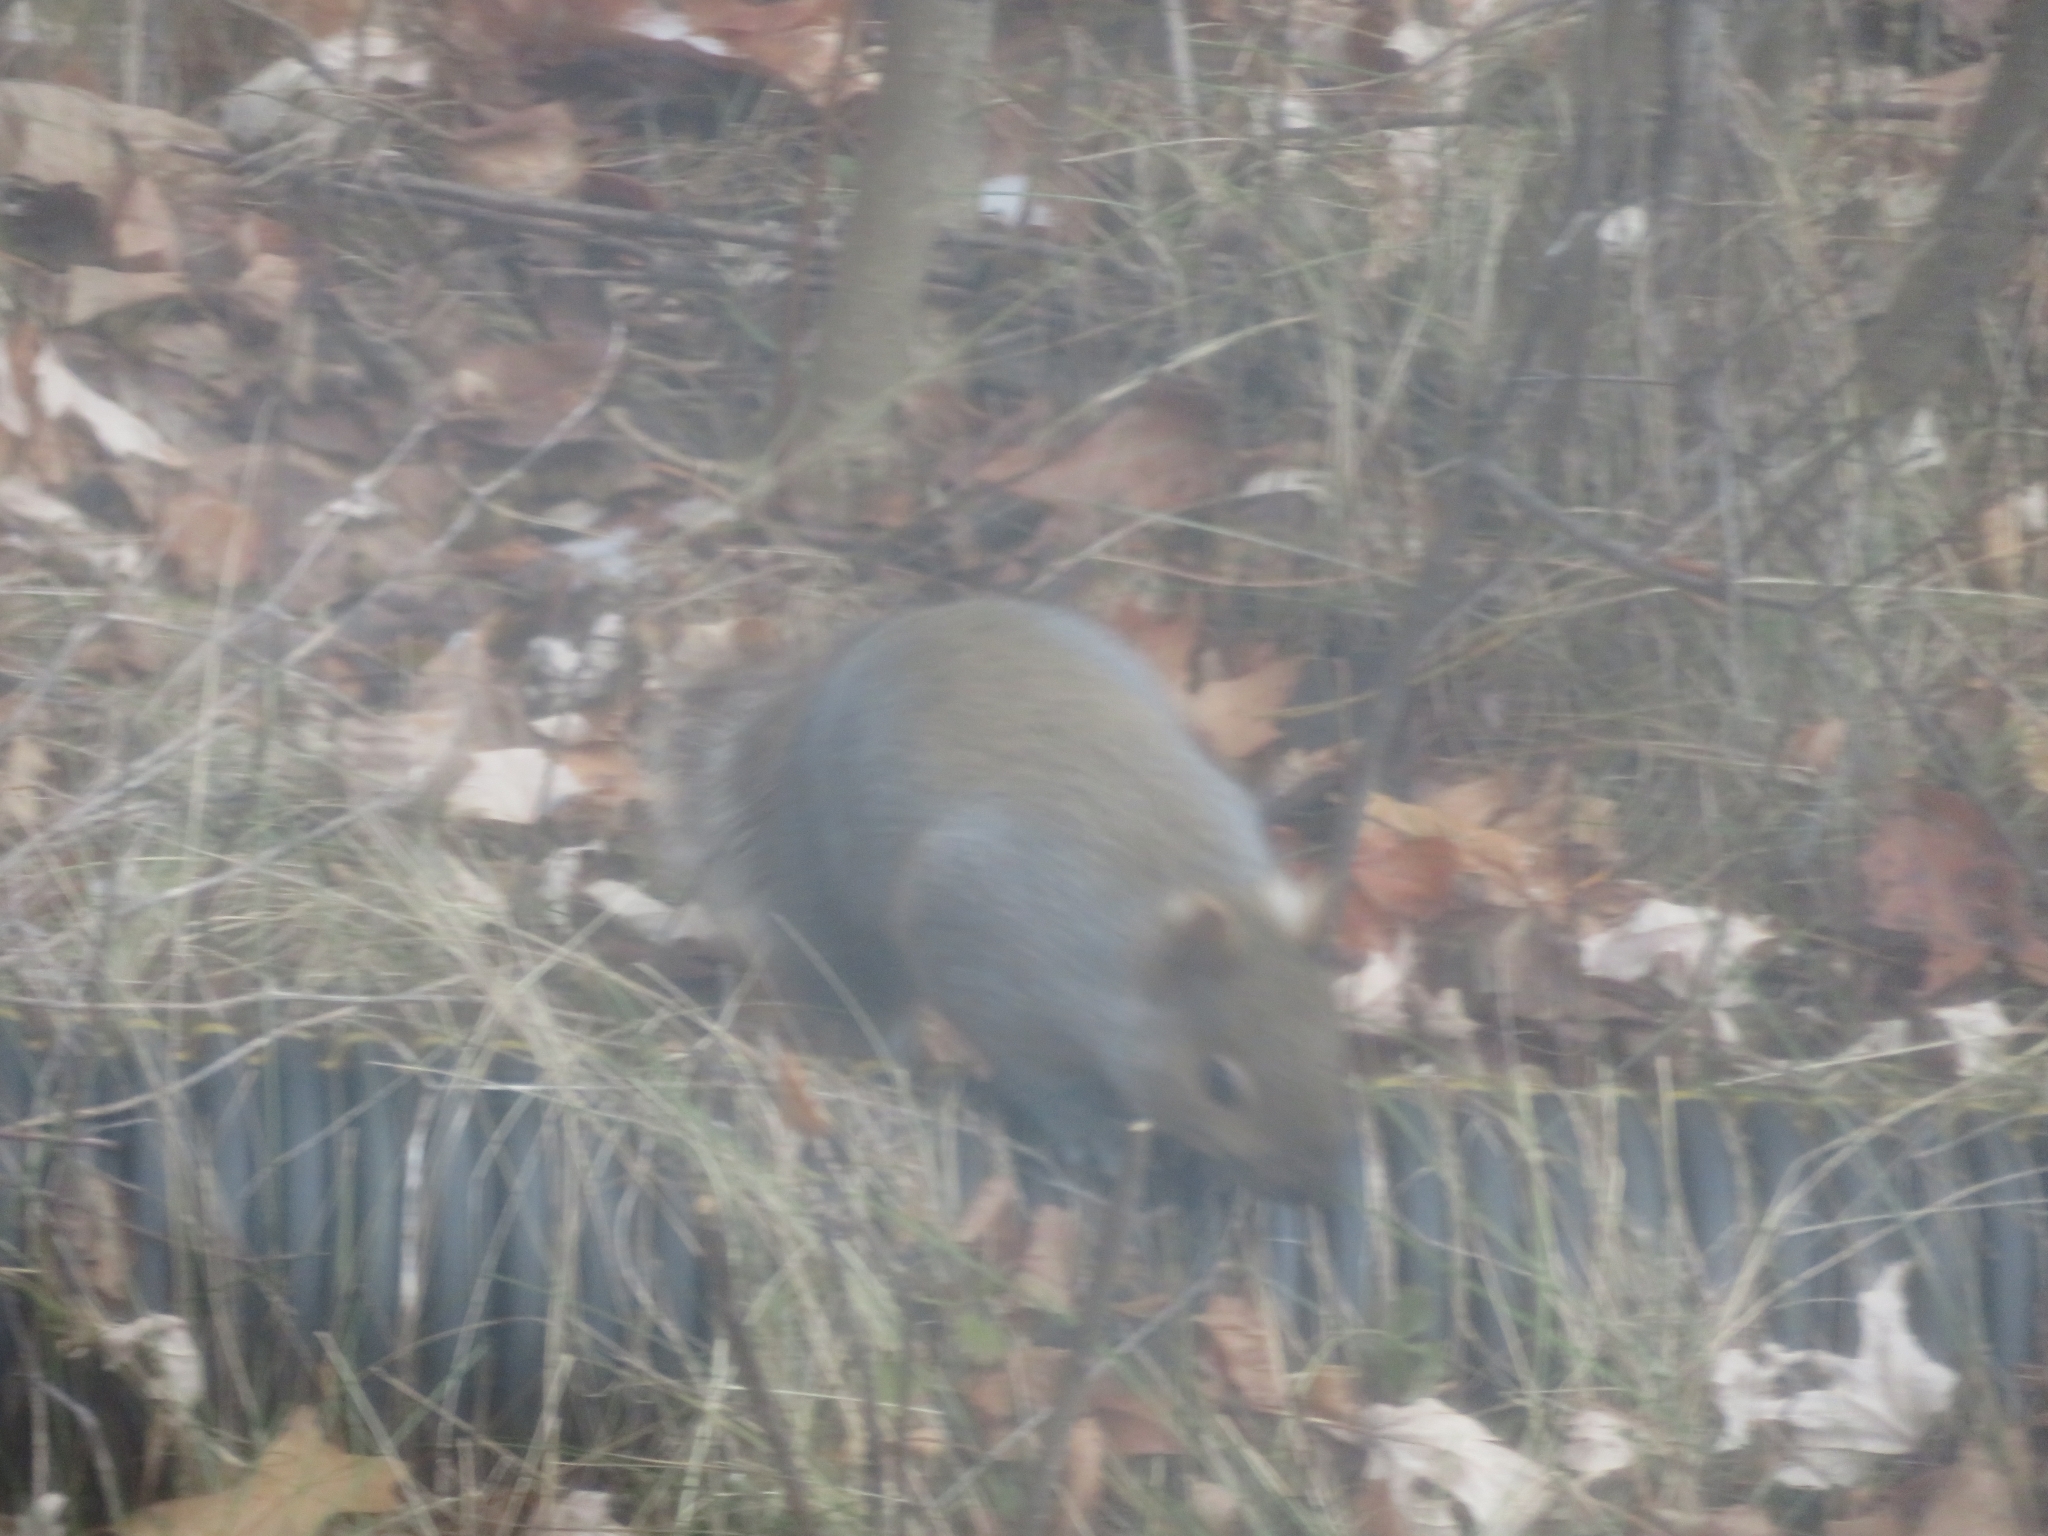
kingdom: Animalia
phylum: Chordata
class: Mammalia
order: Rodentia
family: Sciuridae
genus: Sciurus
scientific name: Sciurus carolinensis
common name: Eastern gray squirrel
